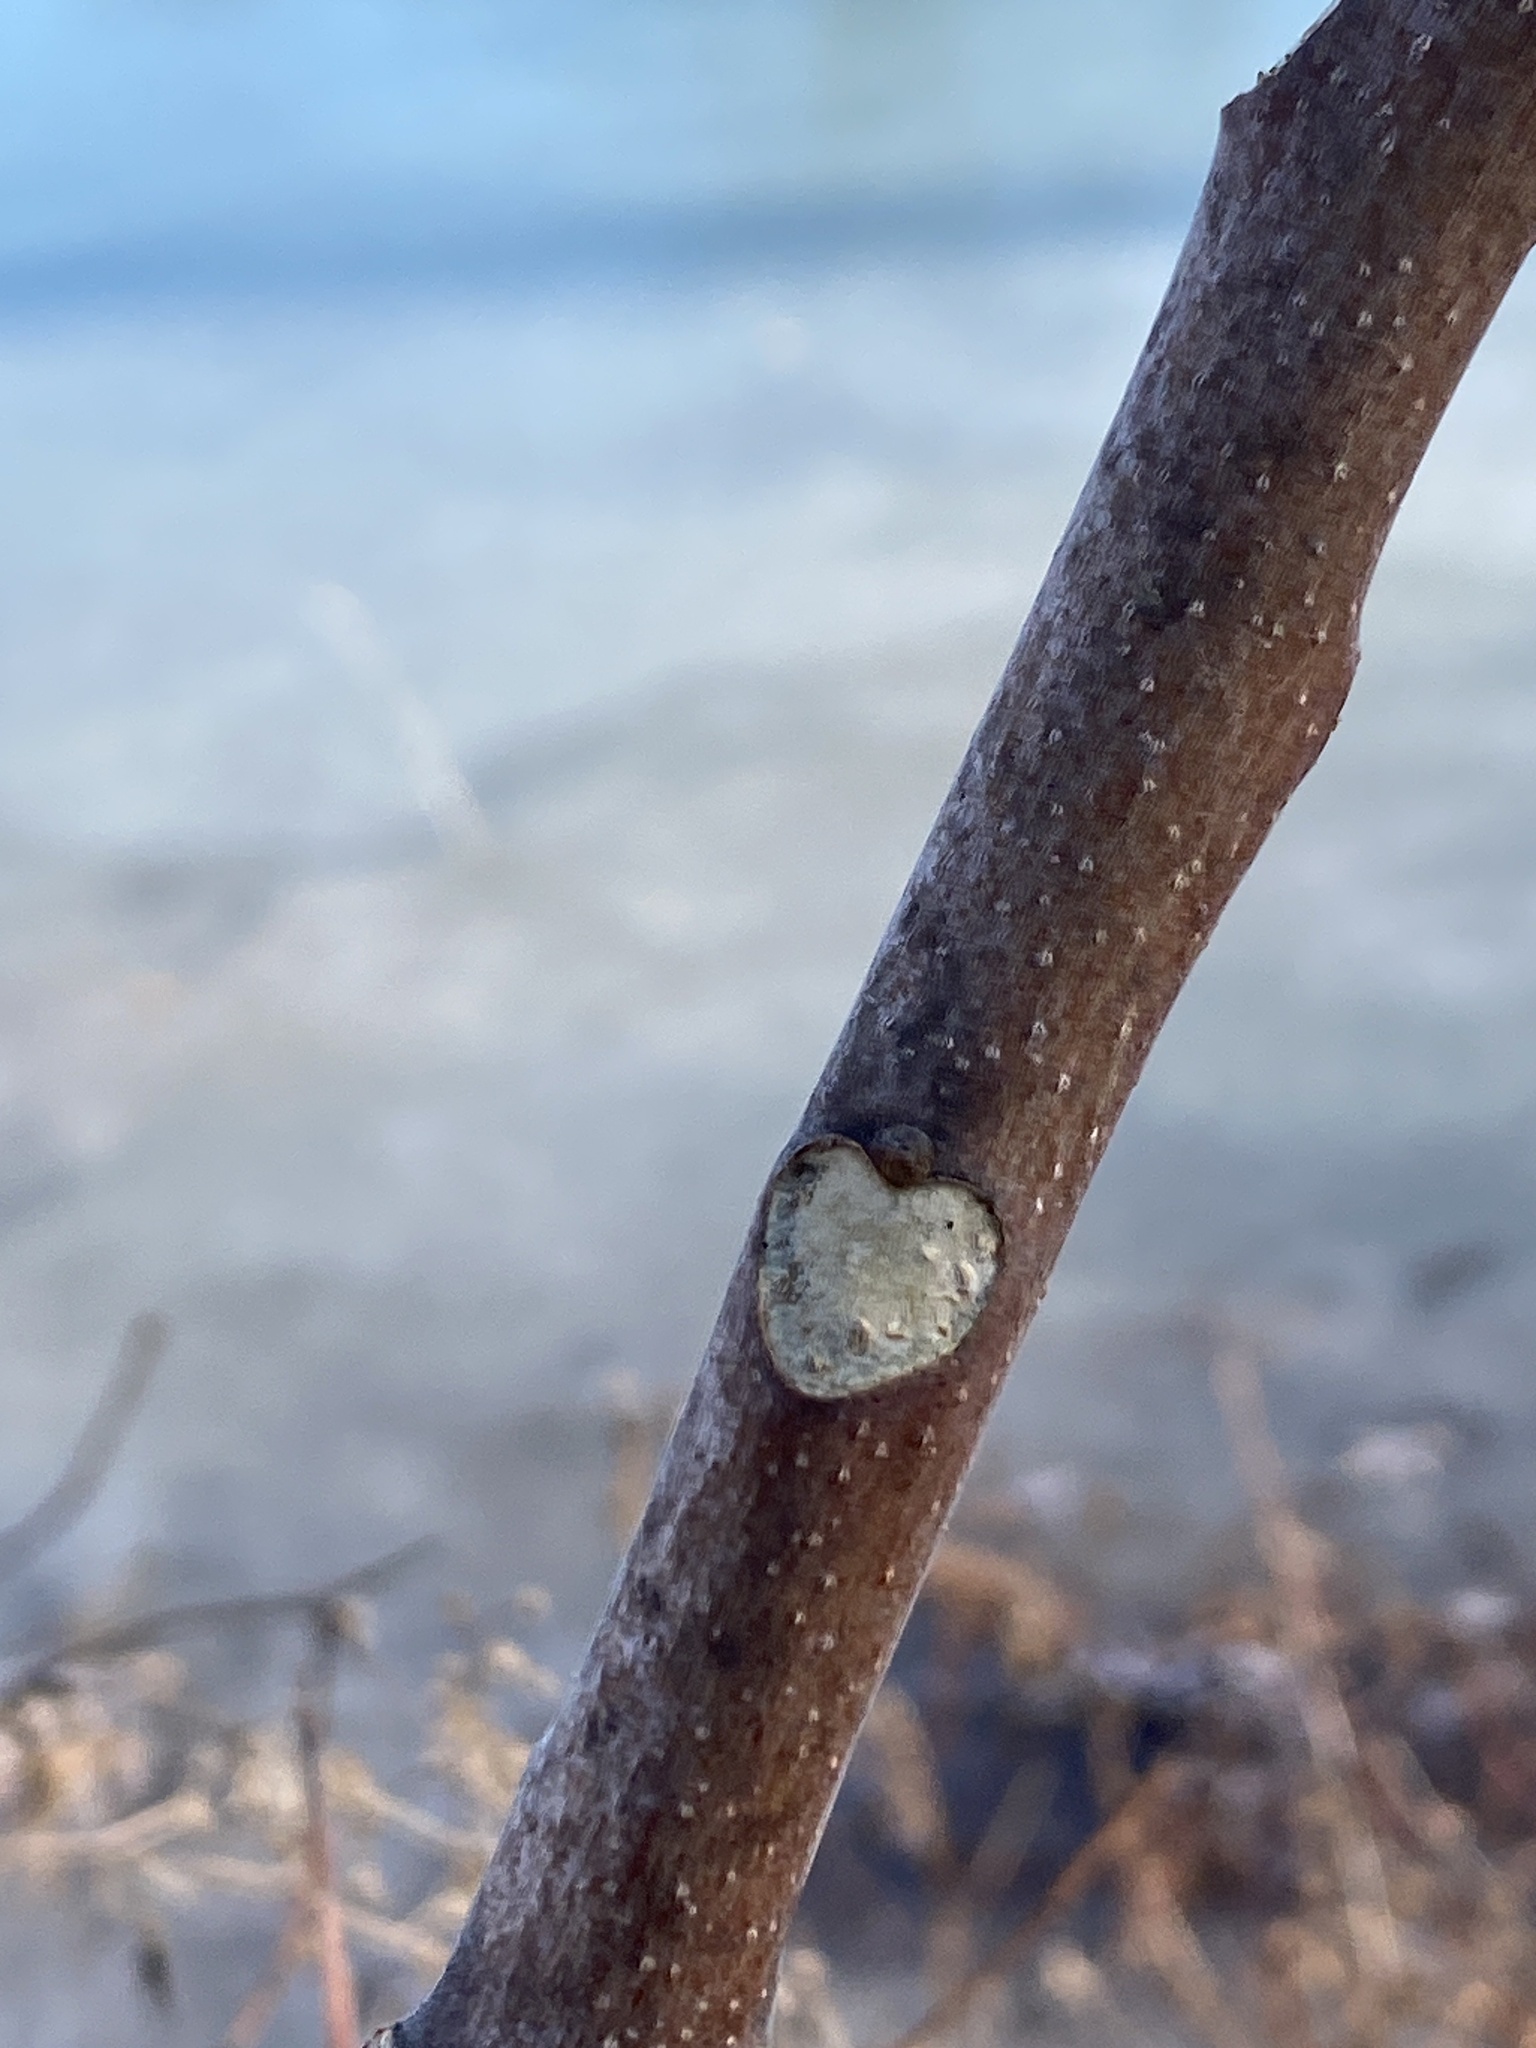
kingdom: Plantae
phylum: Tracheophyta
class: Magnoliopsida
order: Sapindales
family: Simaroubaceae
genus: Ailanthus
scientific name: Ailanthus altissima
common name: Tree-of-heaven
